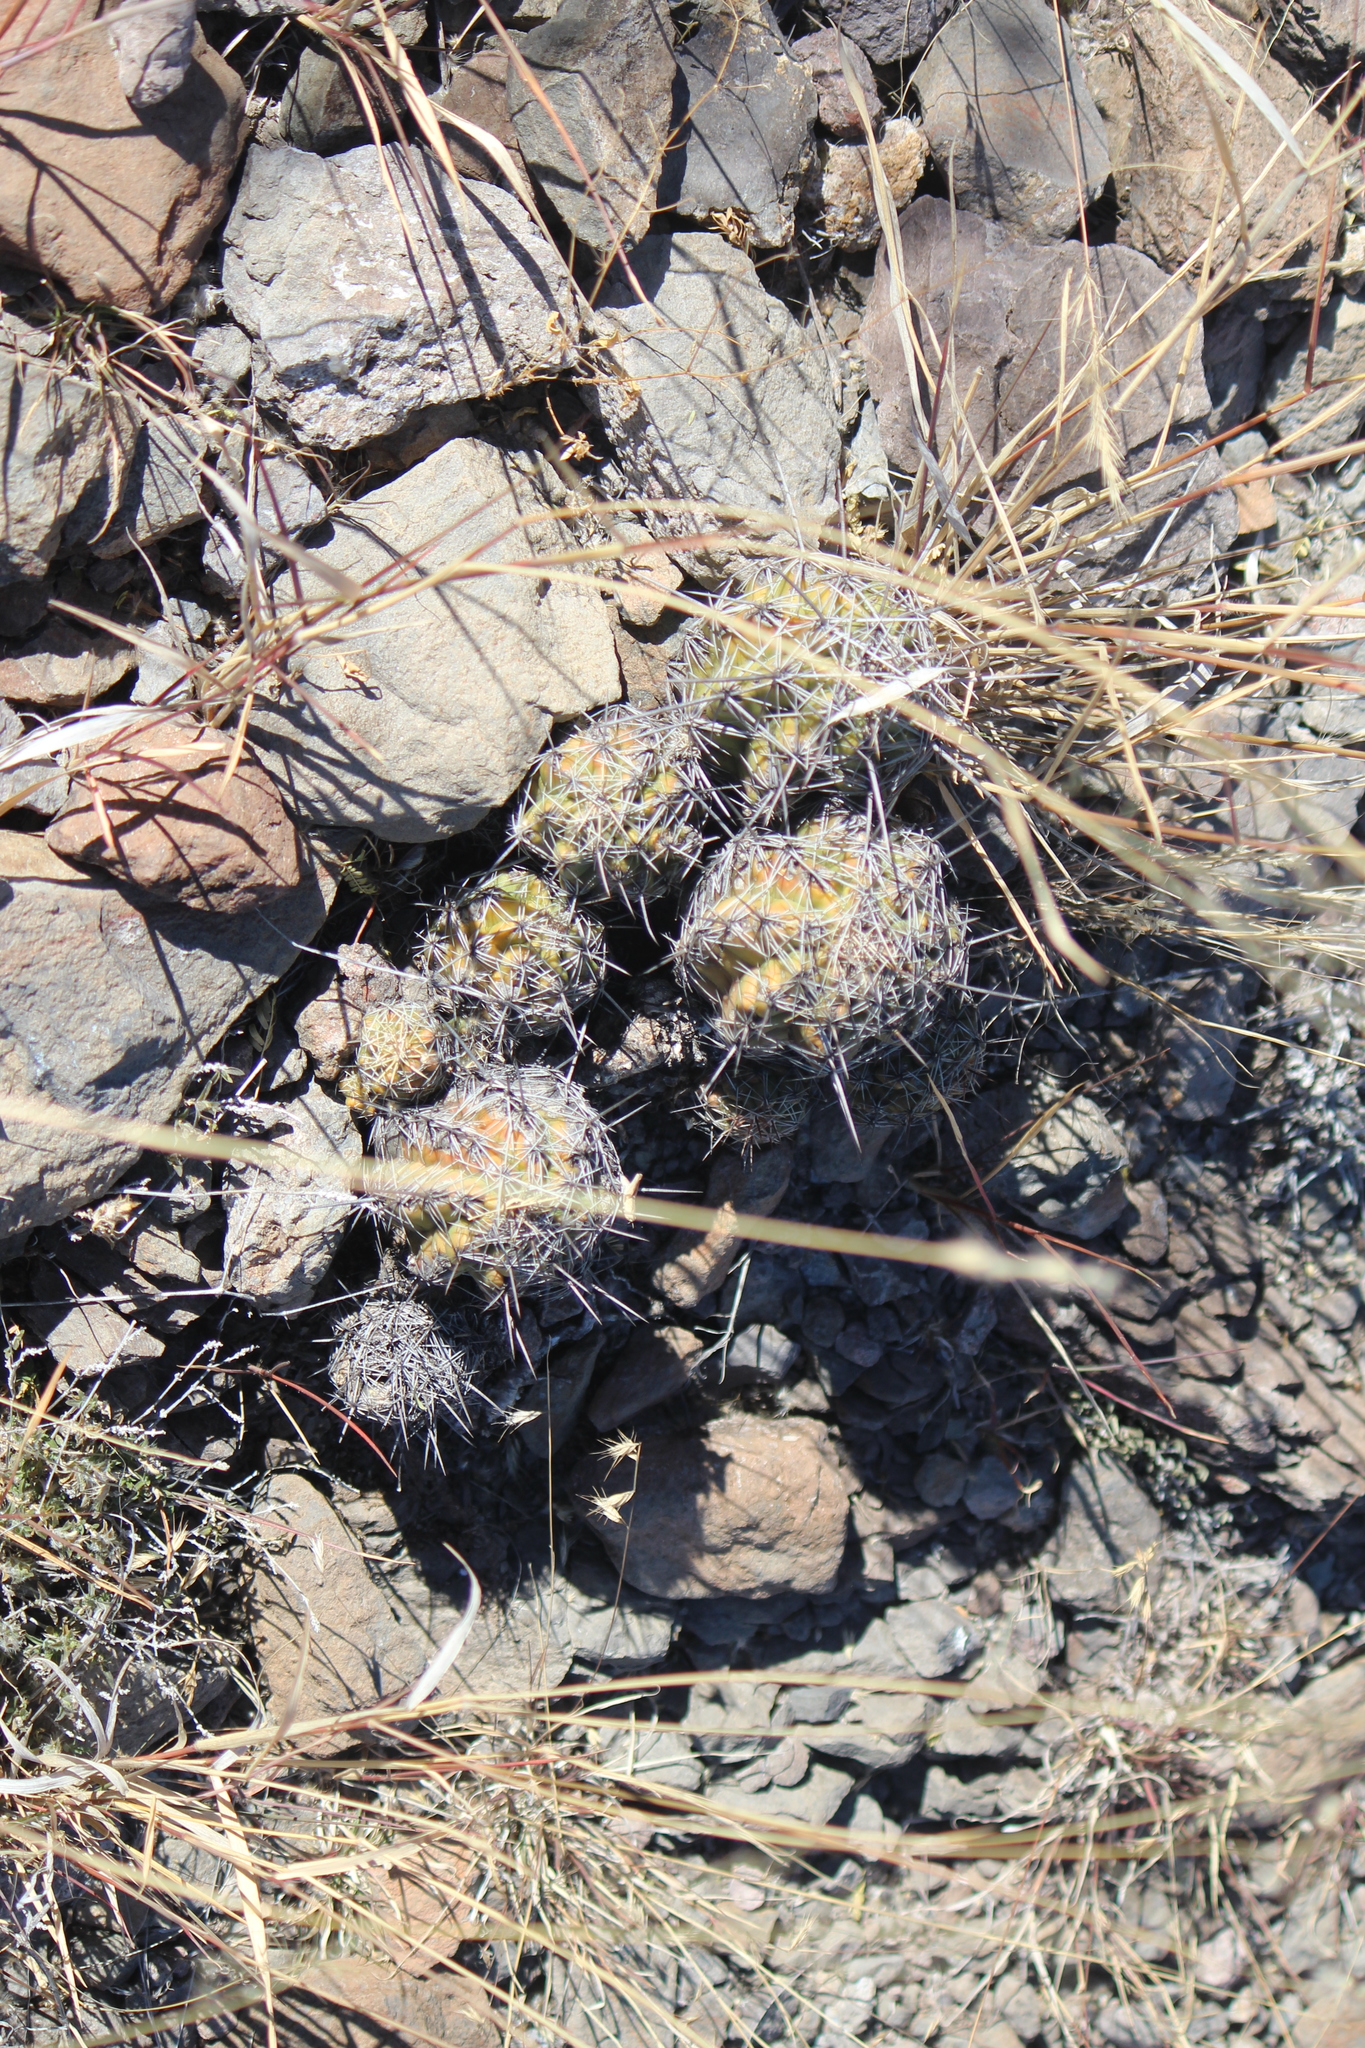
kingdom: Plantae
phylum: Tracheophyta
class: Magnoliopsida
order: Caryophyllales
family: Cactaceae
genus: Thelocactus
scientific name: Thelocactus leucacanthus
